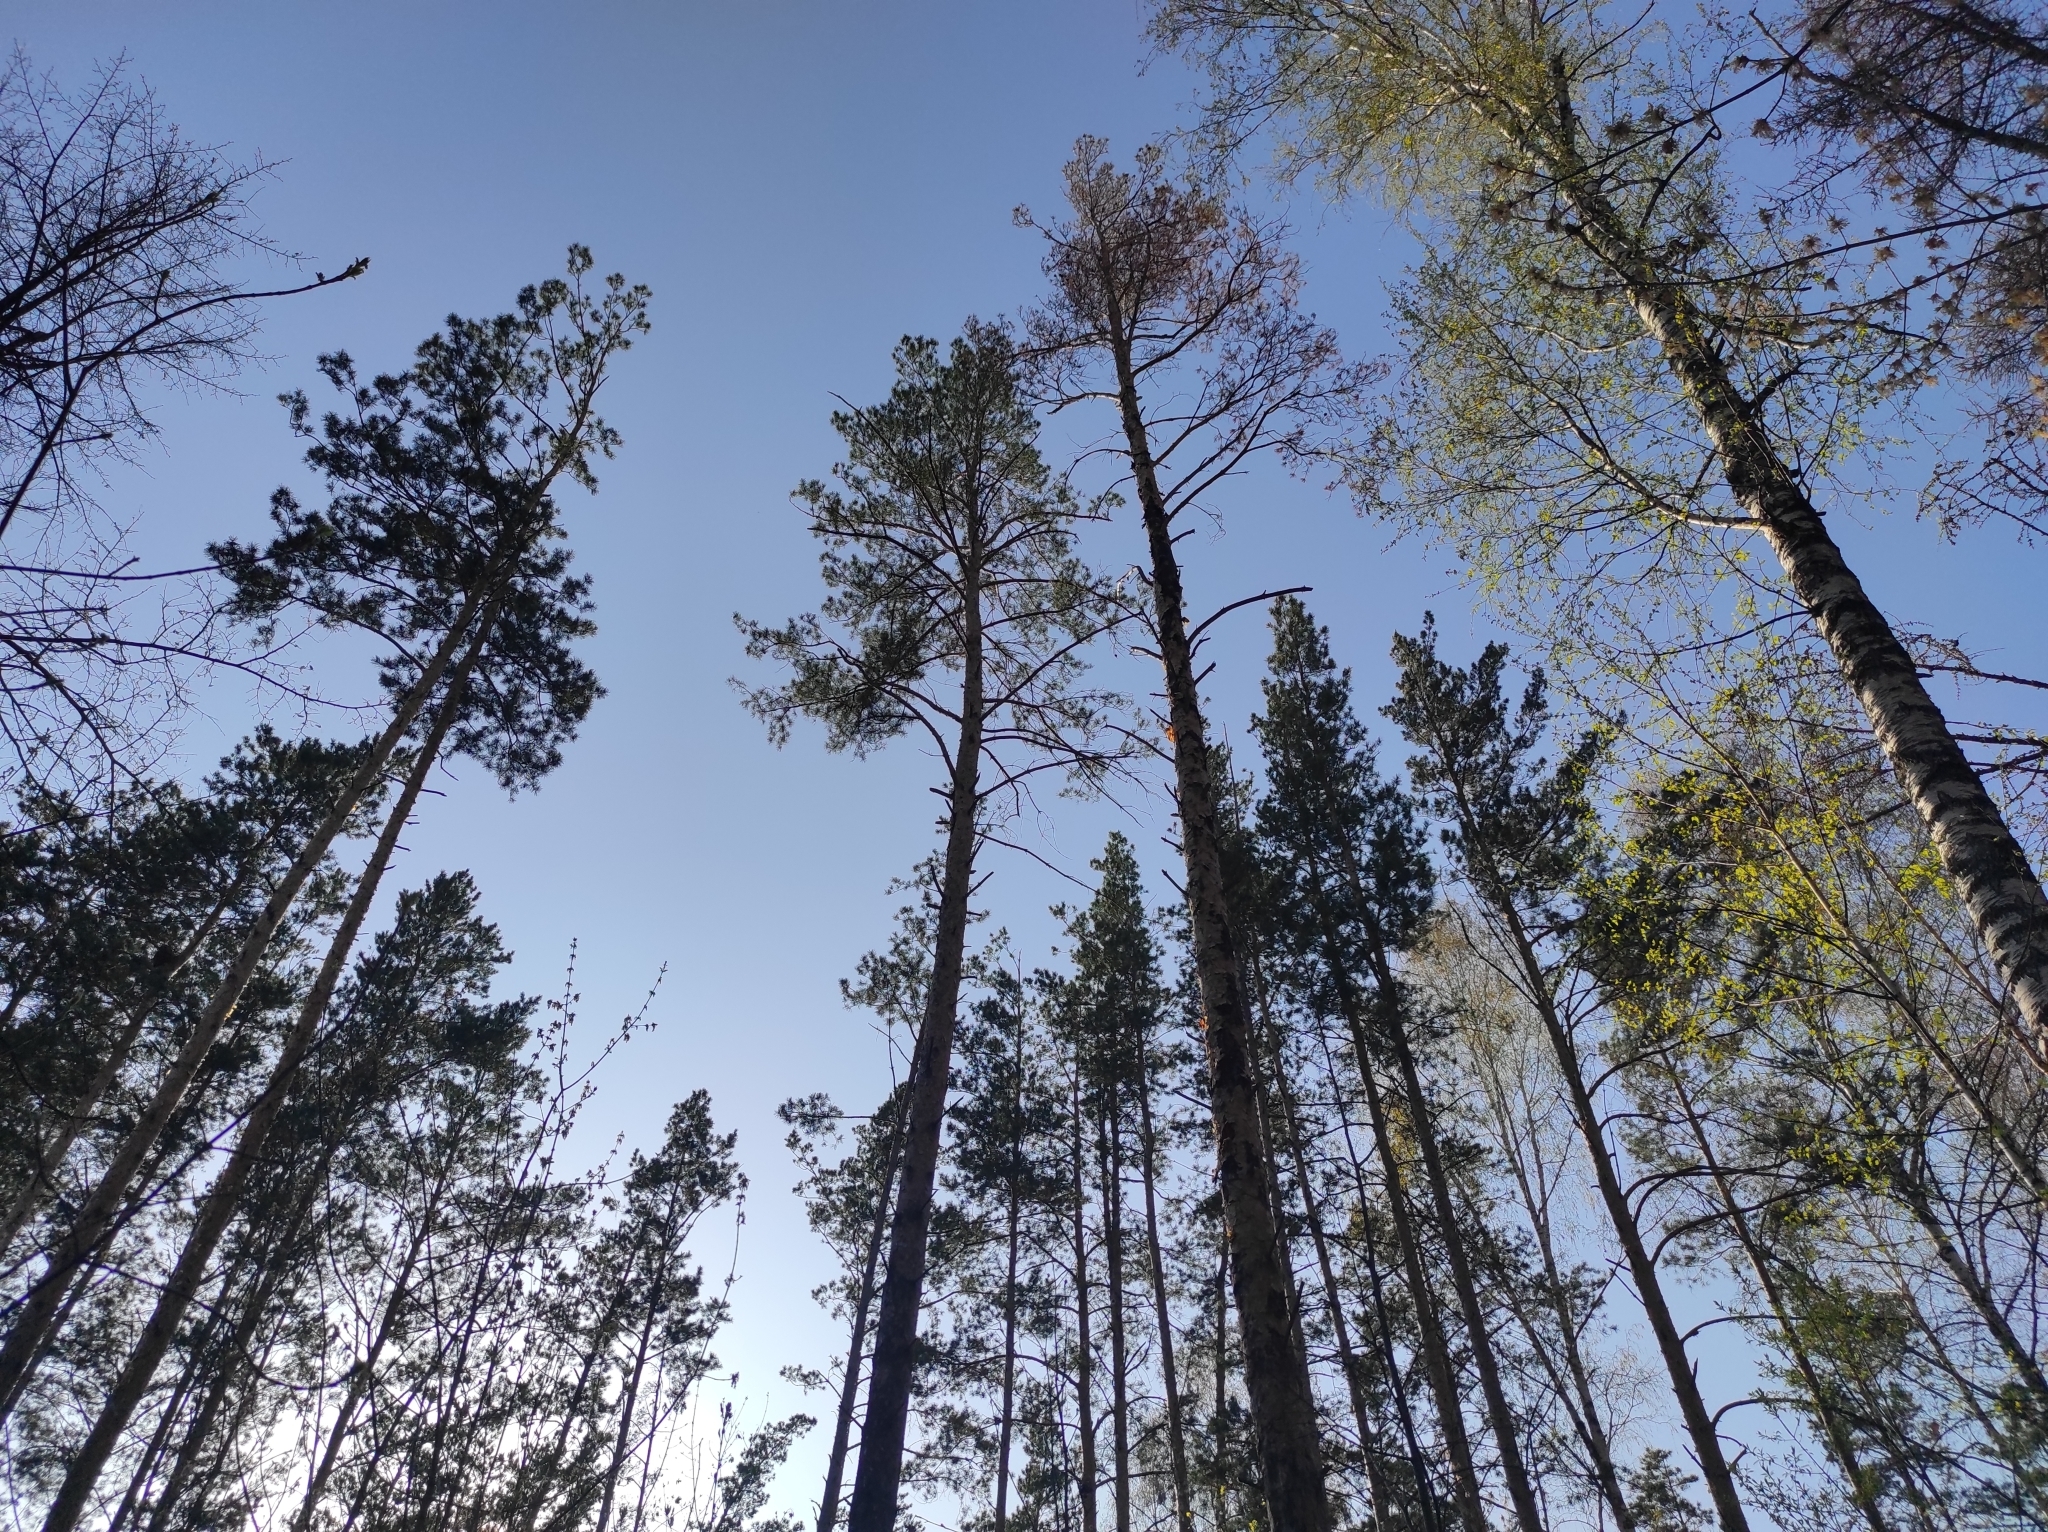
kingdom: Plantae
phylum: Tracheophyta
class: Pinopsida
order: Pinales
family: Pinaceae
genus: Pinus
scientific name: Pinus sylvestris
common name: Scots pine
